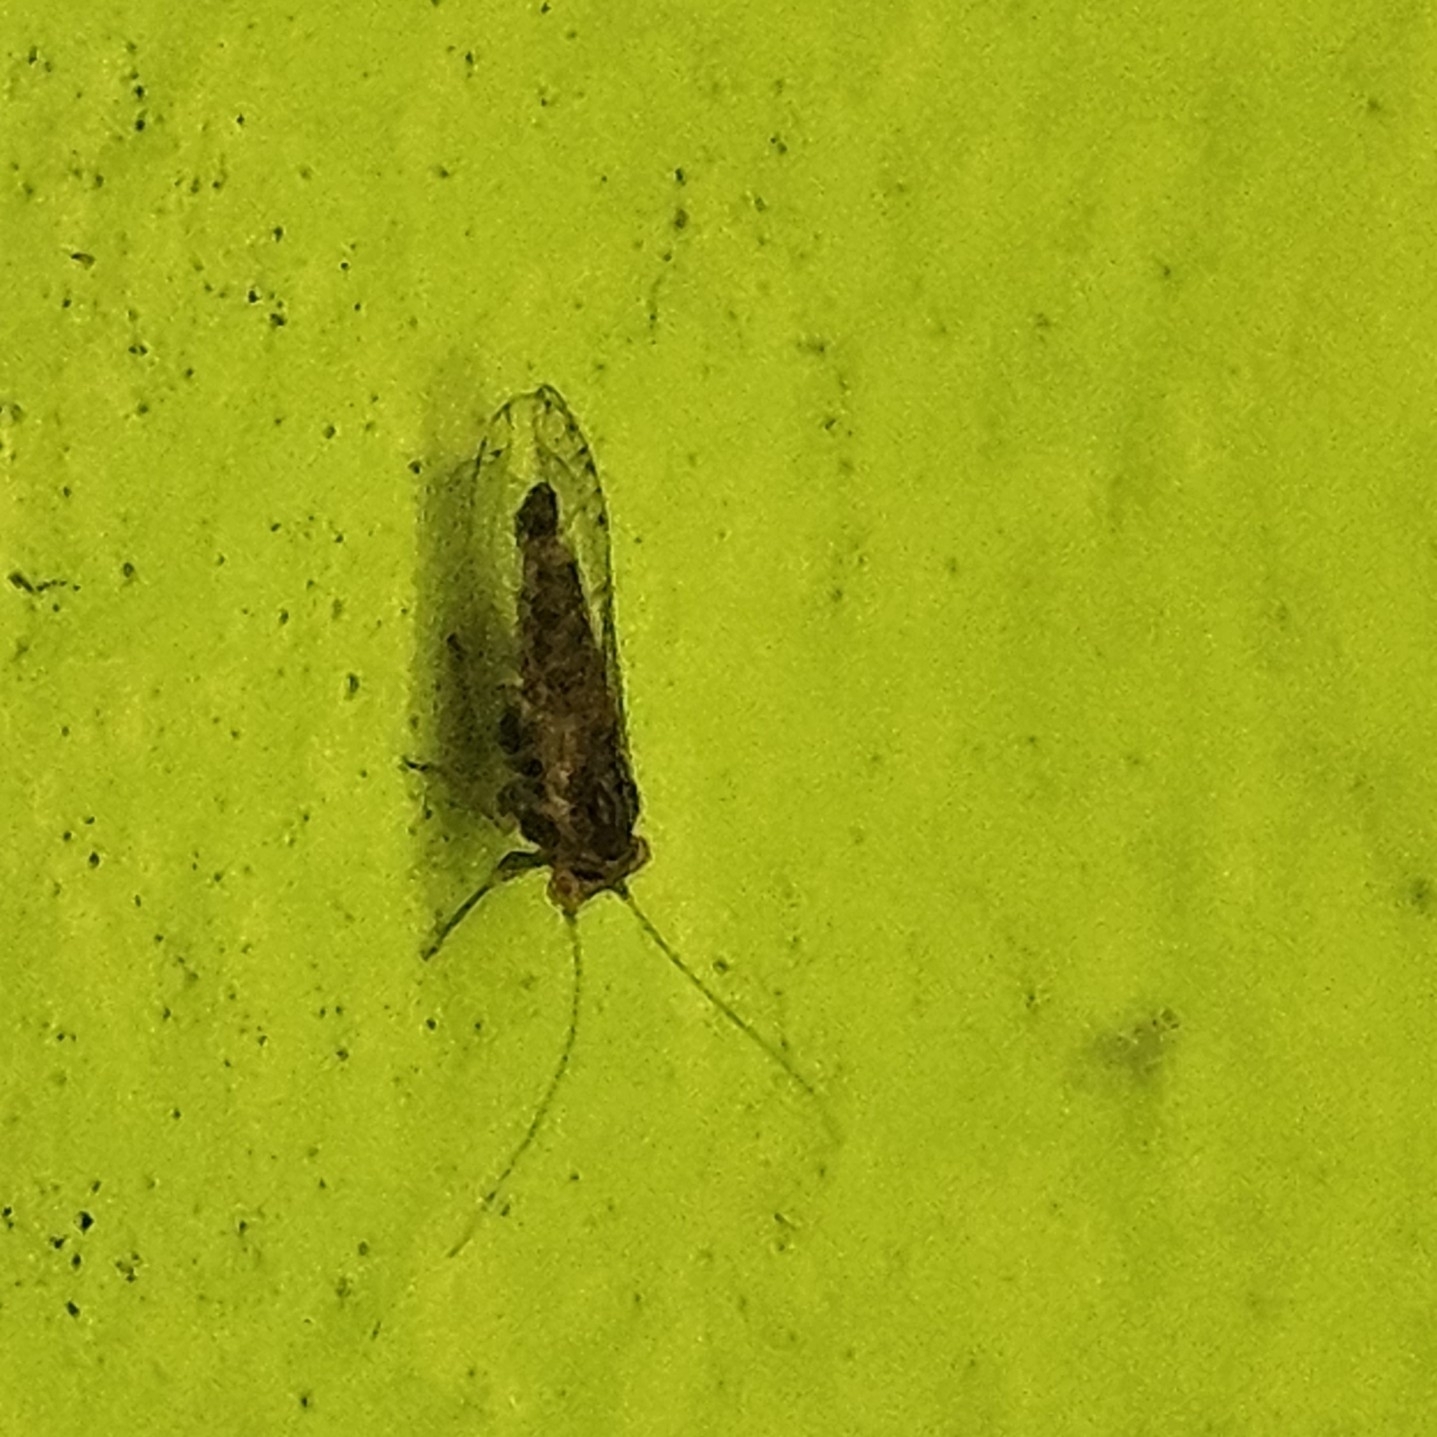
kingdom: Animalia
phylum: Arthropoda
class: Insecta
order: Hemiptera
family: Psyllidae
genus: Platycorypha
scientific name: Platycorypha nigrivirga
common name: Tipu psyllid
